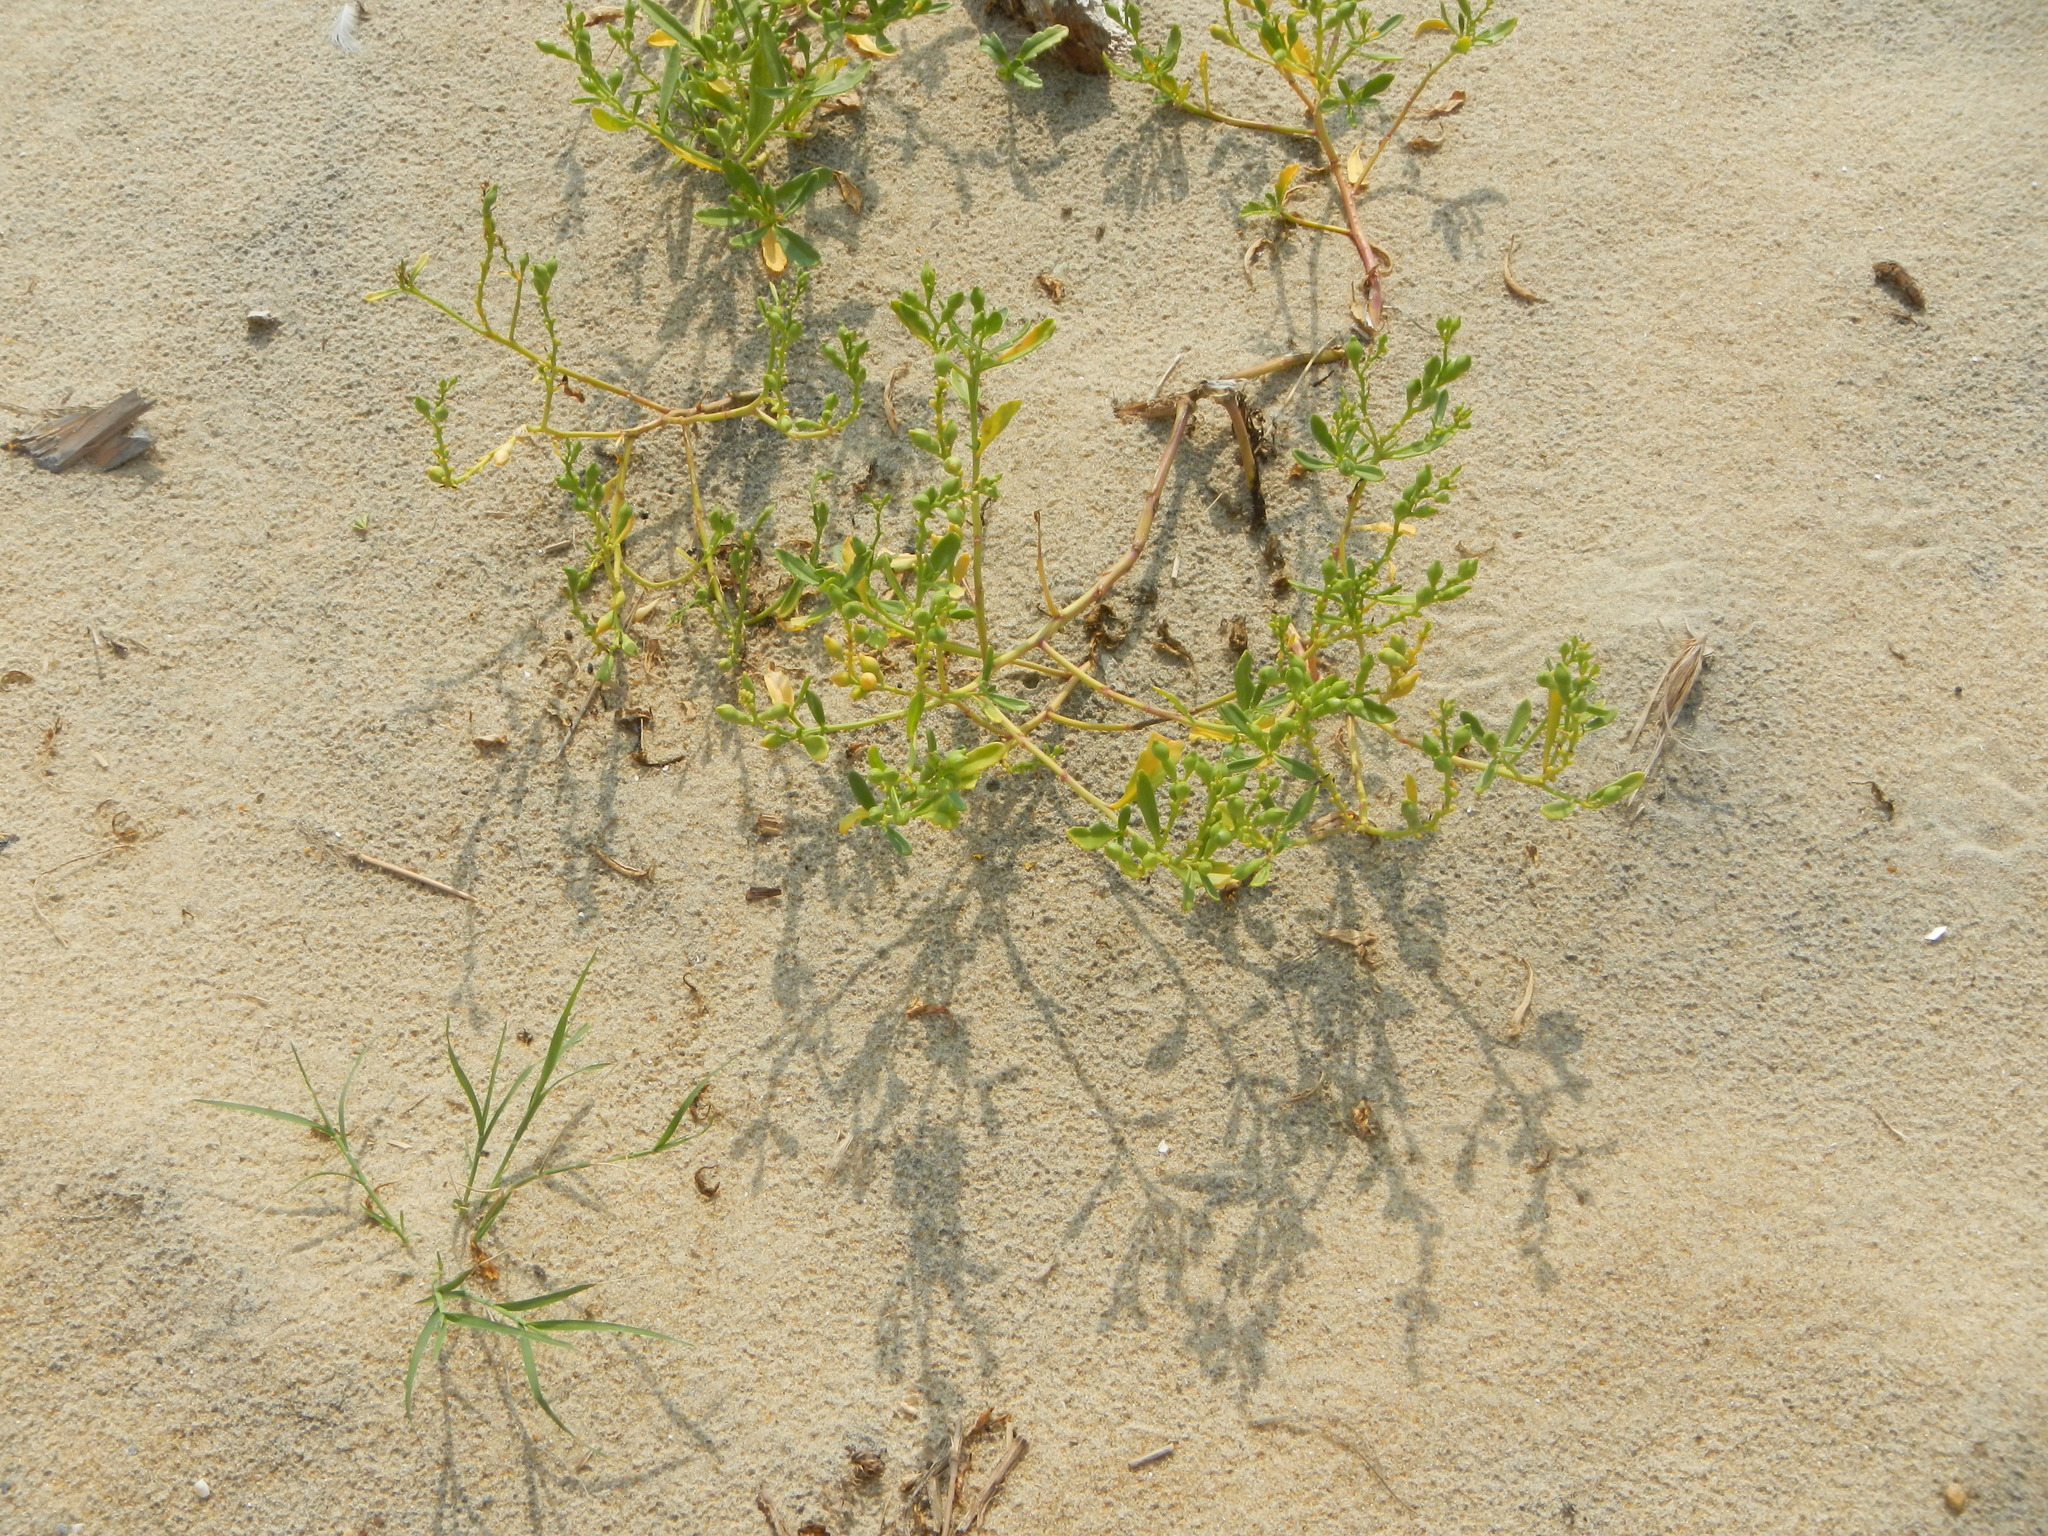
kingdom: Plantae
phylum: Tracheophyta
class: Magnoliopsida
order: Brassicales
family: Brassicaceae
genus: Cakile
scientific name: Cakile edentula
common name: American sea rocket
